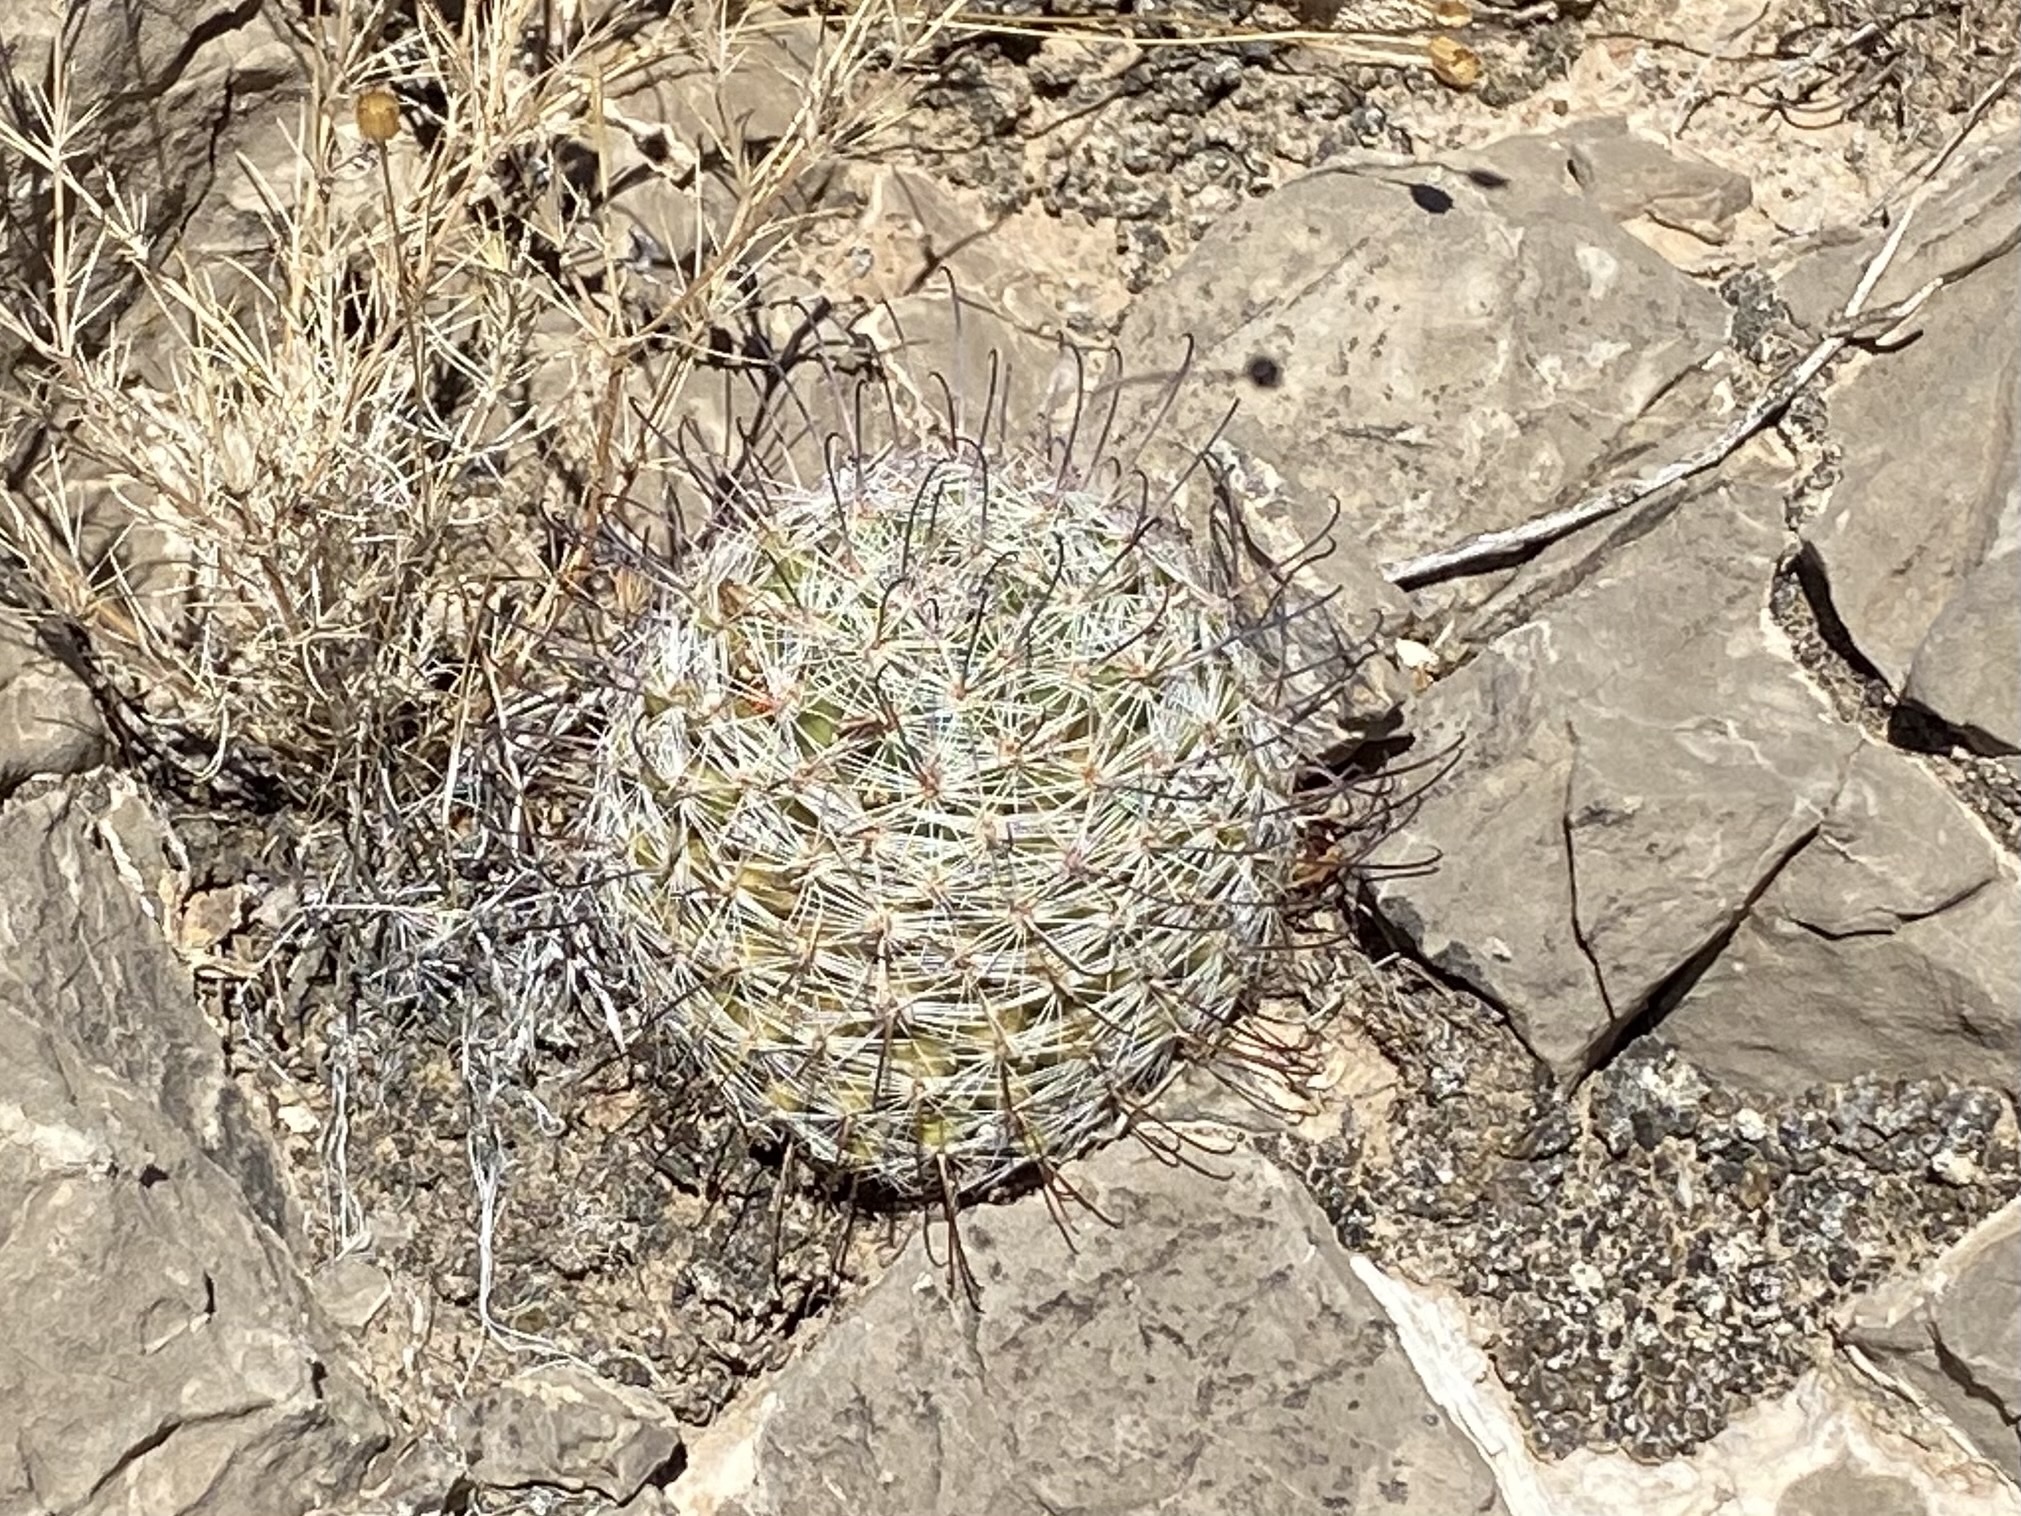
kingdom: Plantae
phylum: Tracheophyta
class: Magnoliopsida
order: Caryophyllales
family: Cactaceae
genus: Cochemiea
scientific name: Cochemiea grahamii
